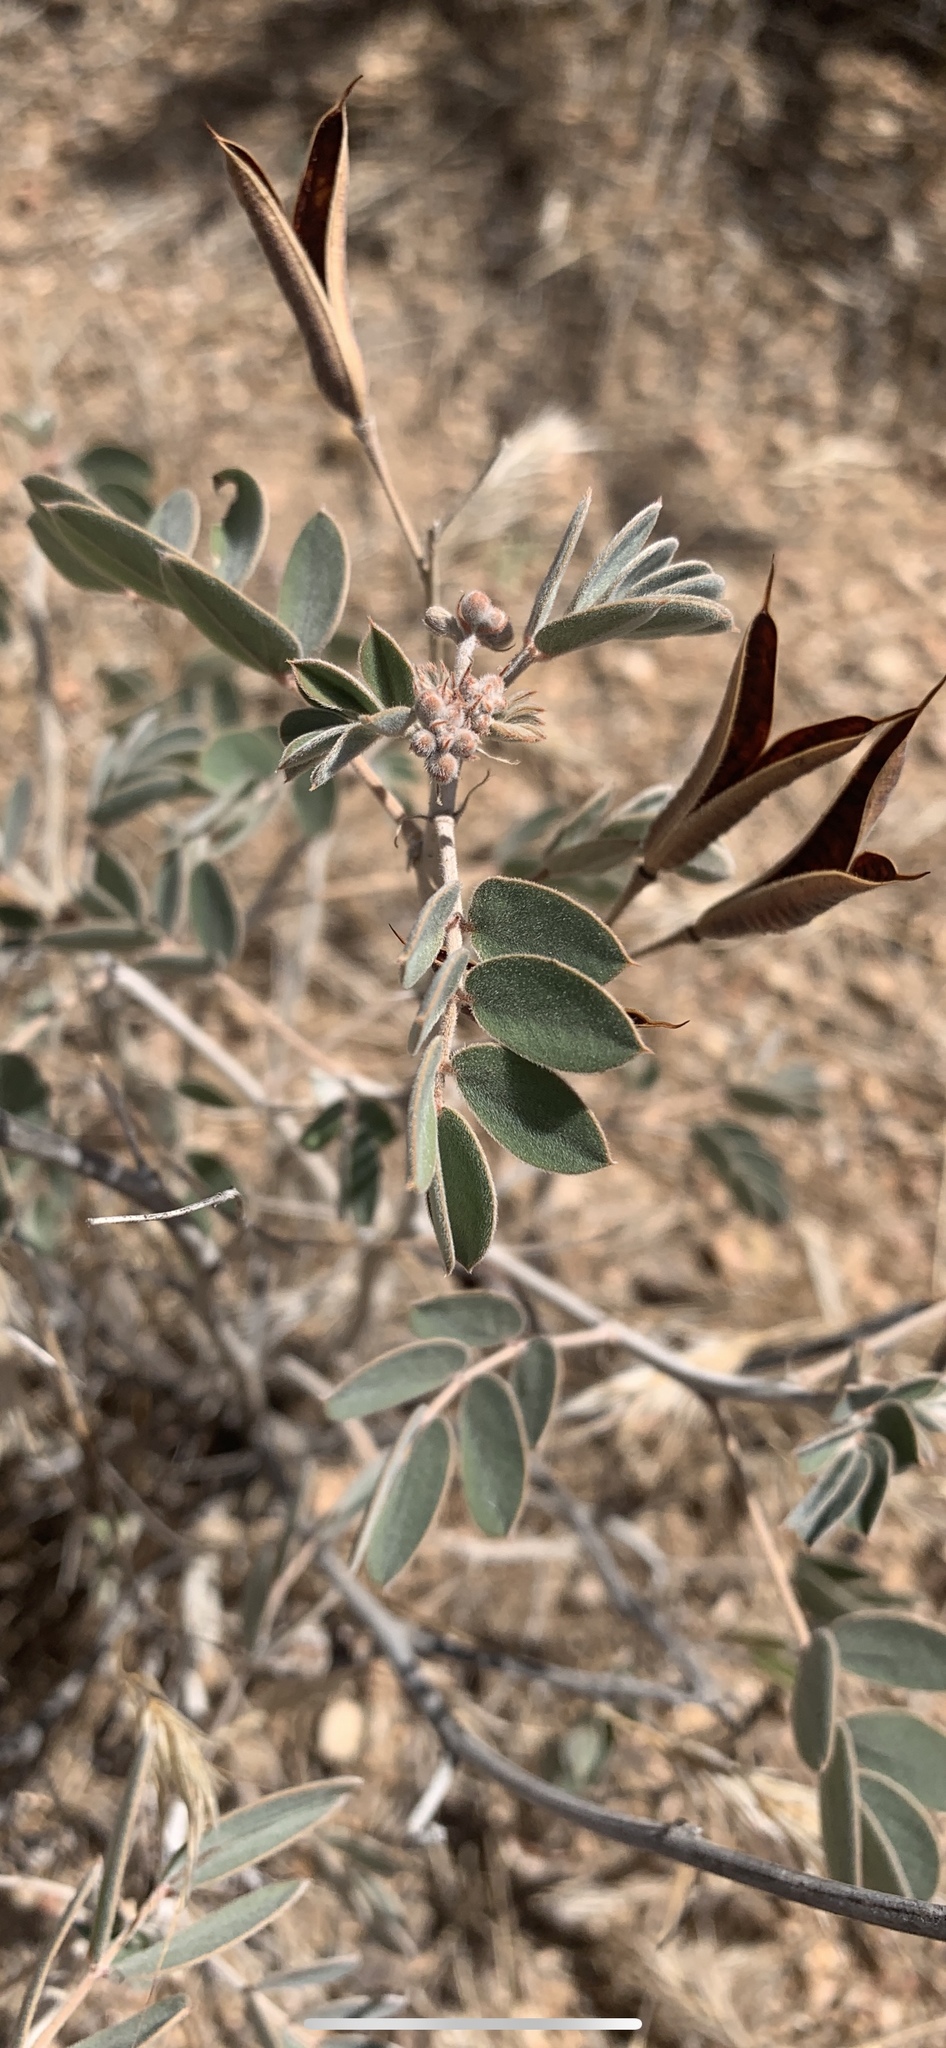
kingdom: Plantae
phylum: Tracheophyta
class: Magnoliopsida
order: Fabales
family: Fabaceae
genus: Senna
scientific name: Senna covesii
